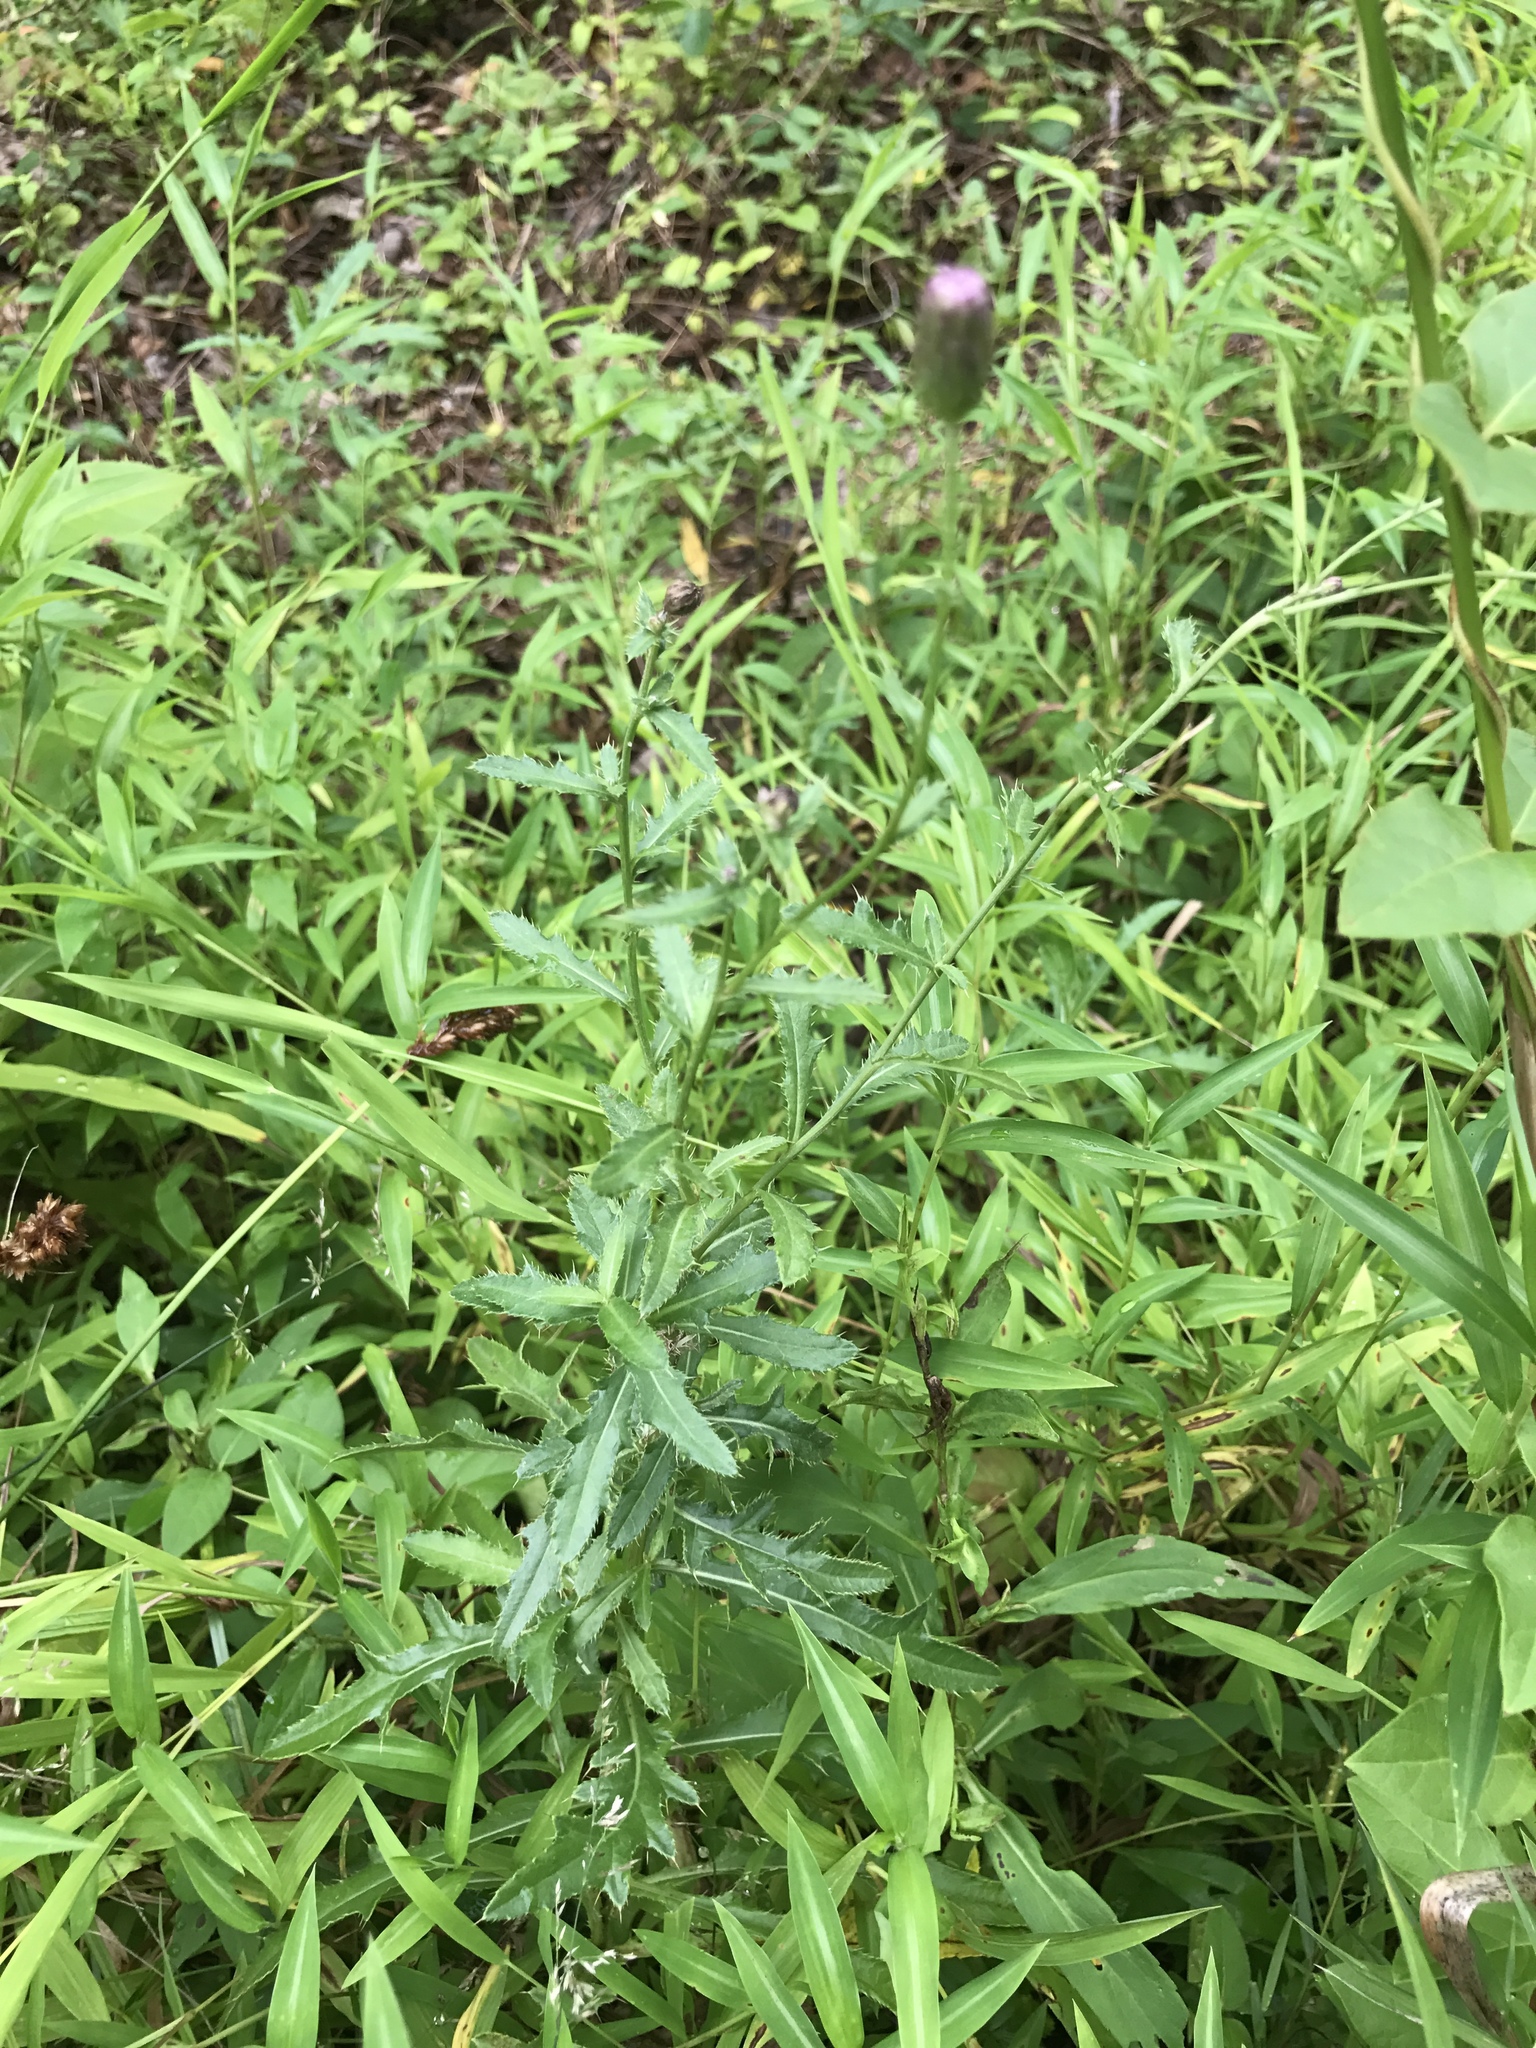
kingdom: Plantae
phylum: Tracheophyta
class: Magnoliopsida
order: Asterales
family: Asteraceae
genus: Cirsium
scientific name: Cirsium arvense
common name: Creeping thistle
